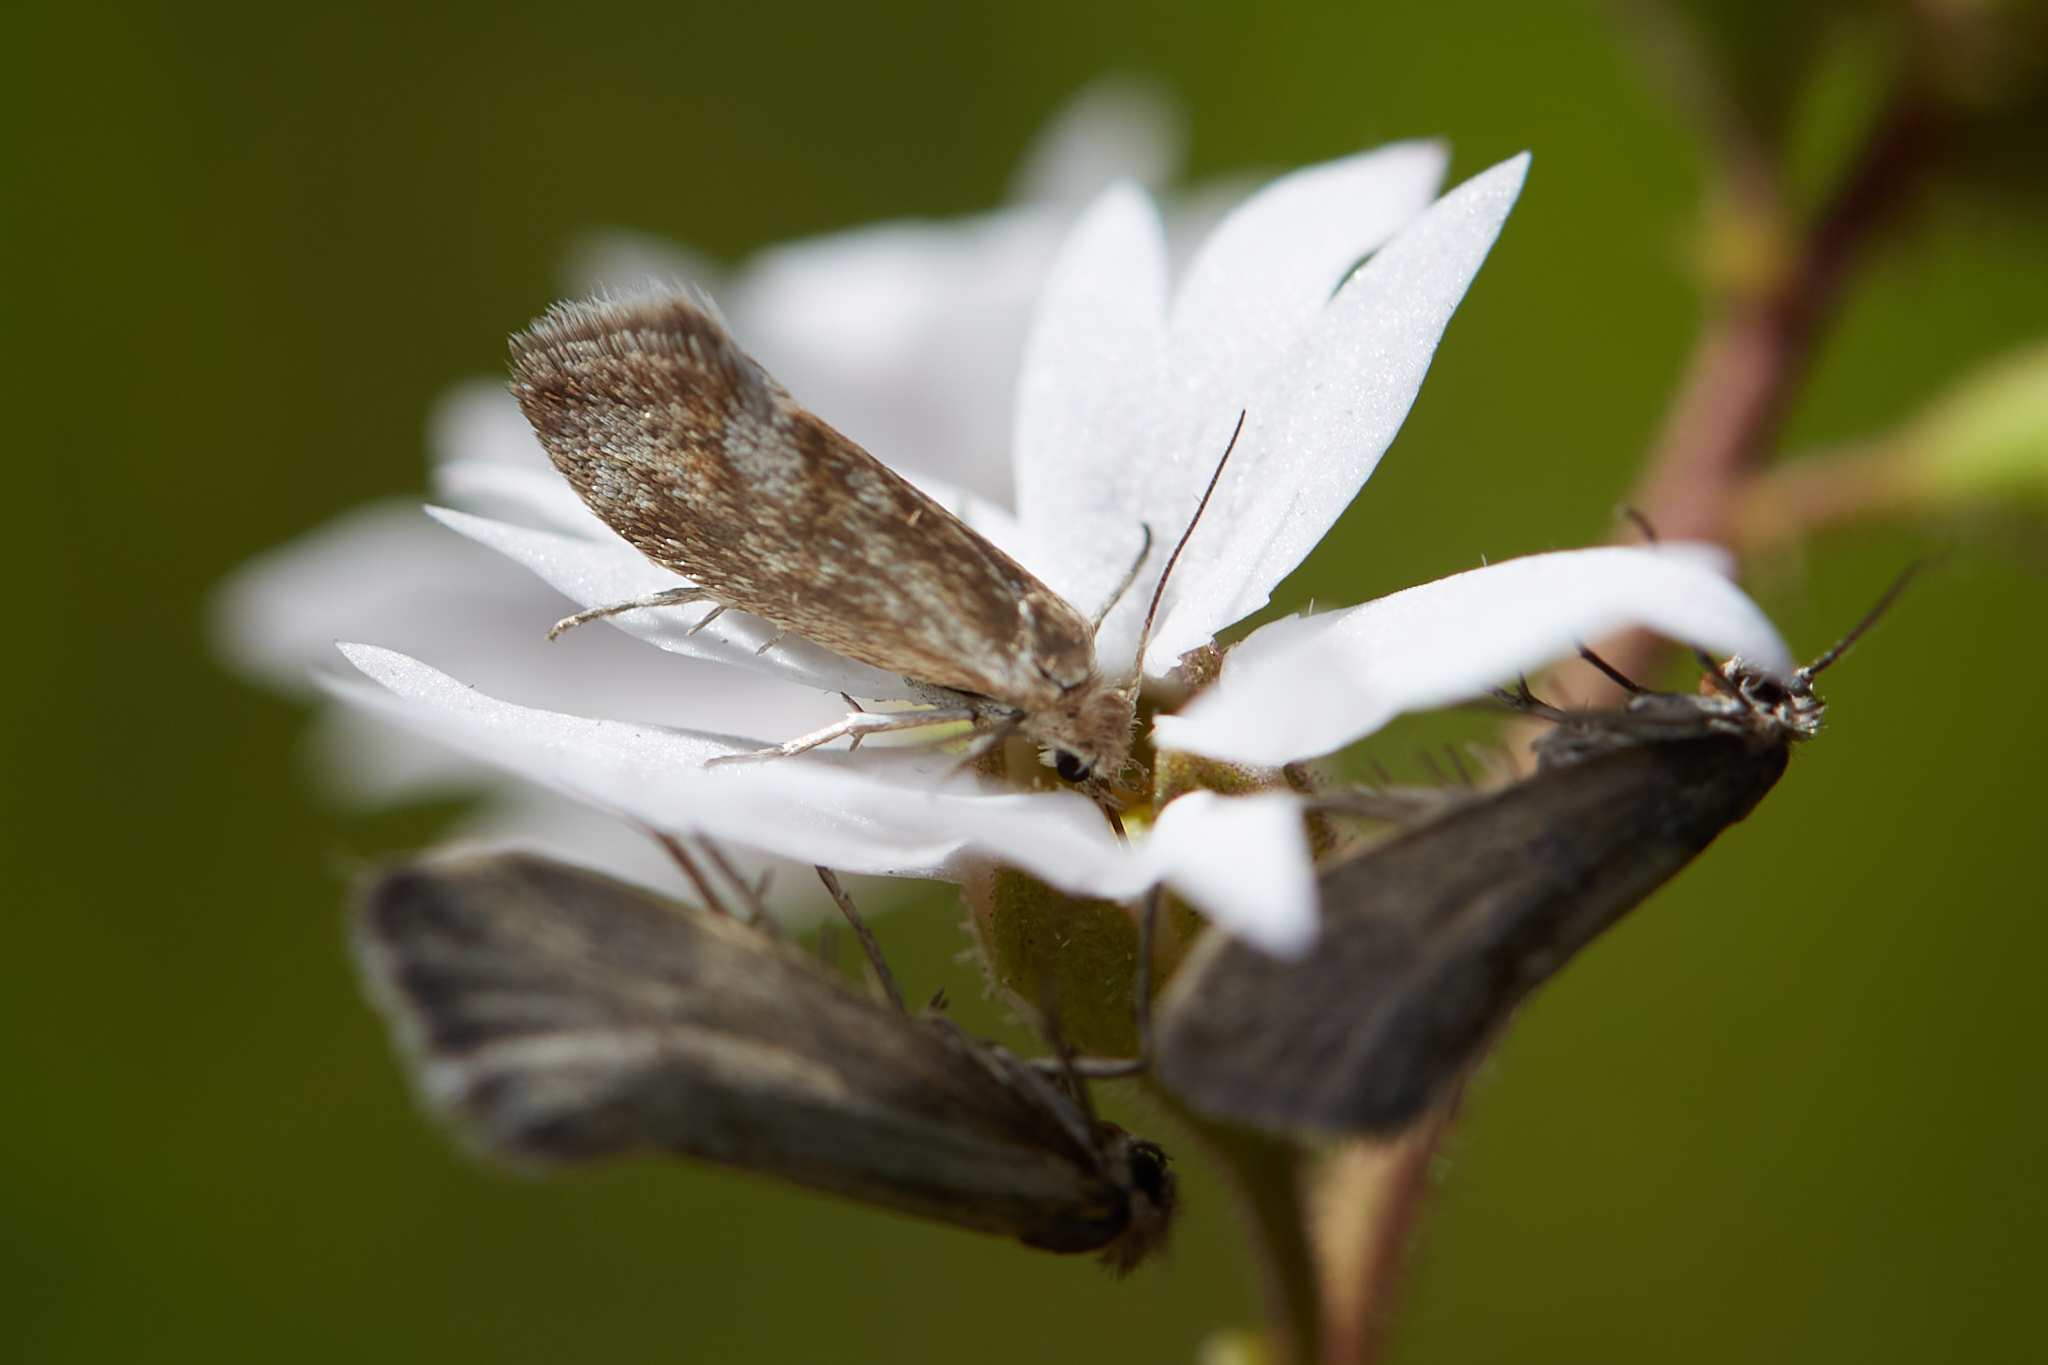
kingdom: Animalia
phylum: Arthropoda
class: Insecta
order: Lepidoptera
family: Prodoxidae
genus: Greya
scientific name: Greya obscura
